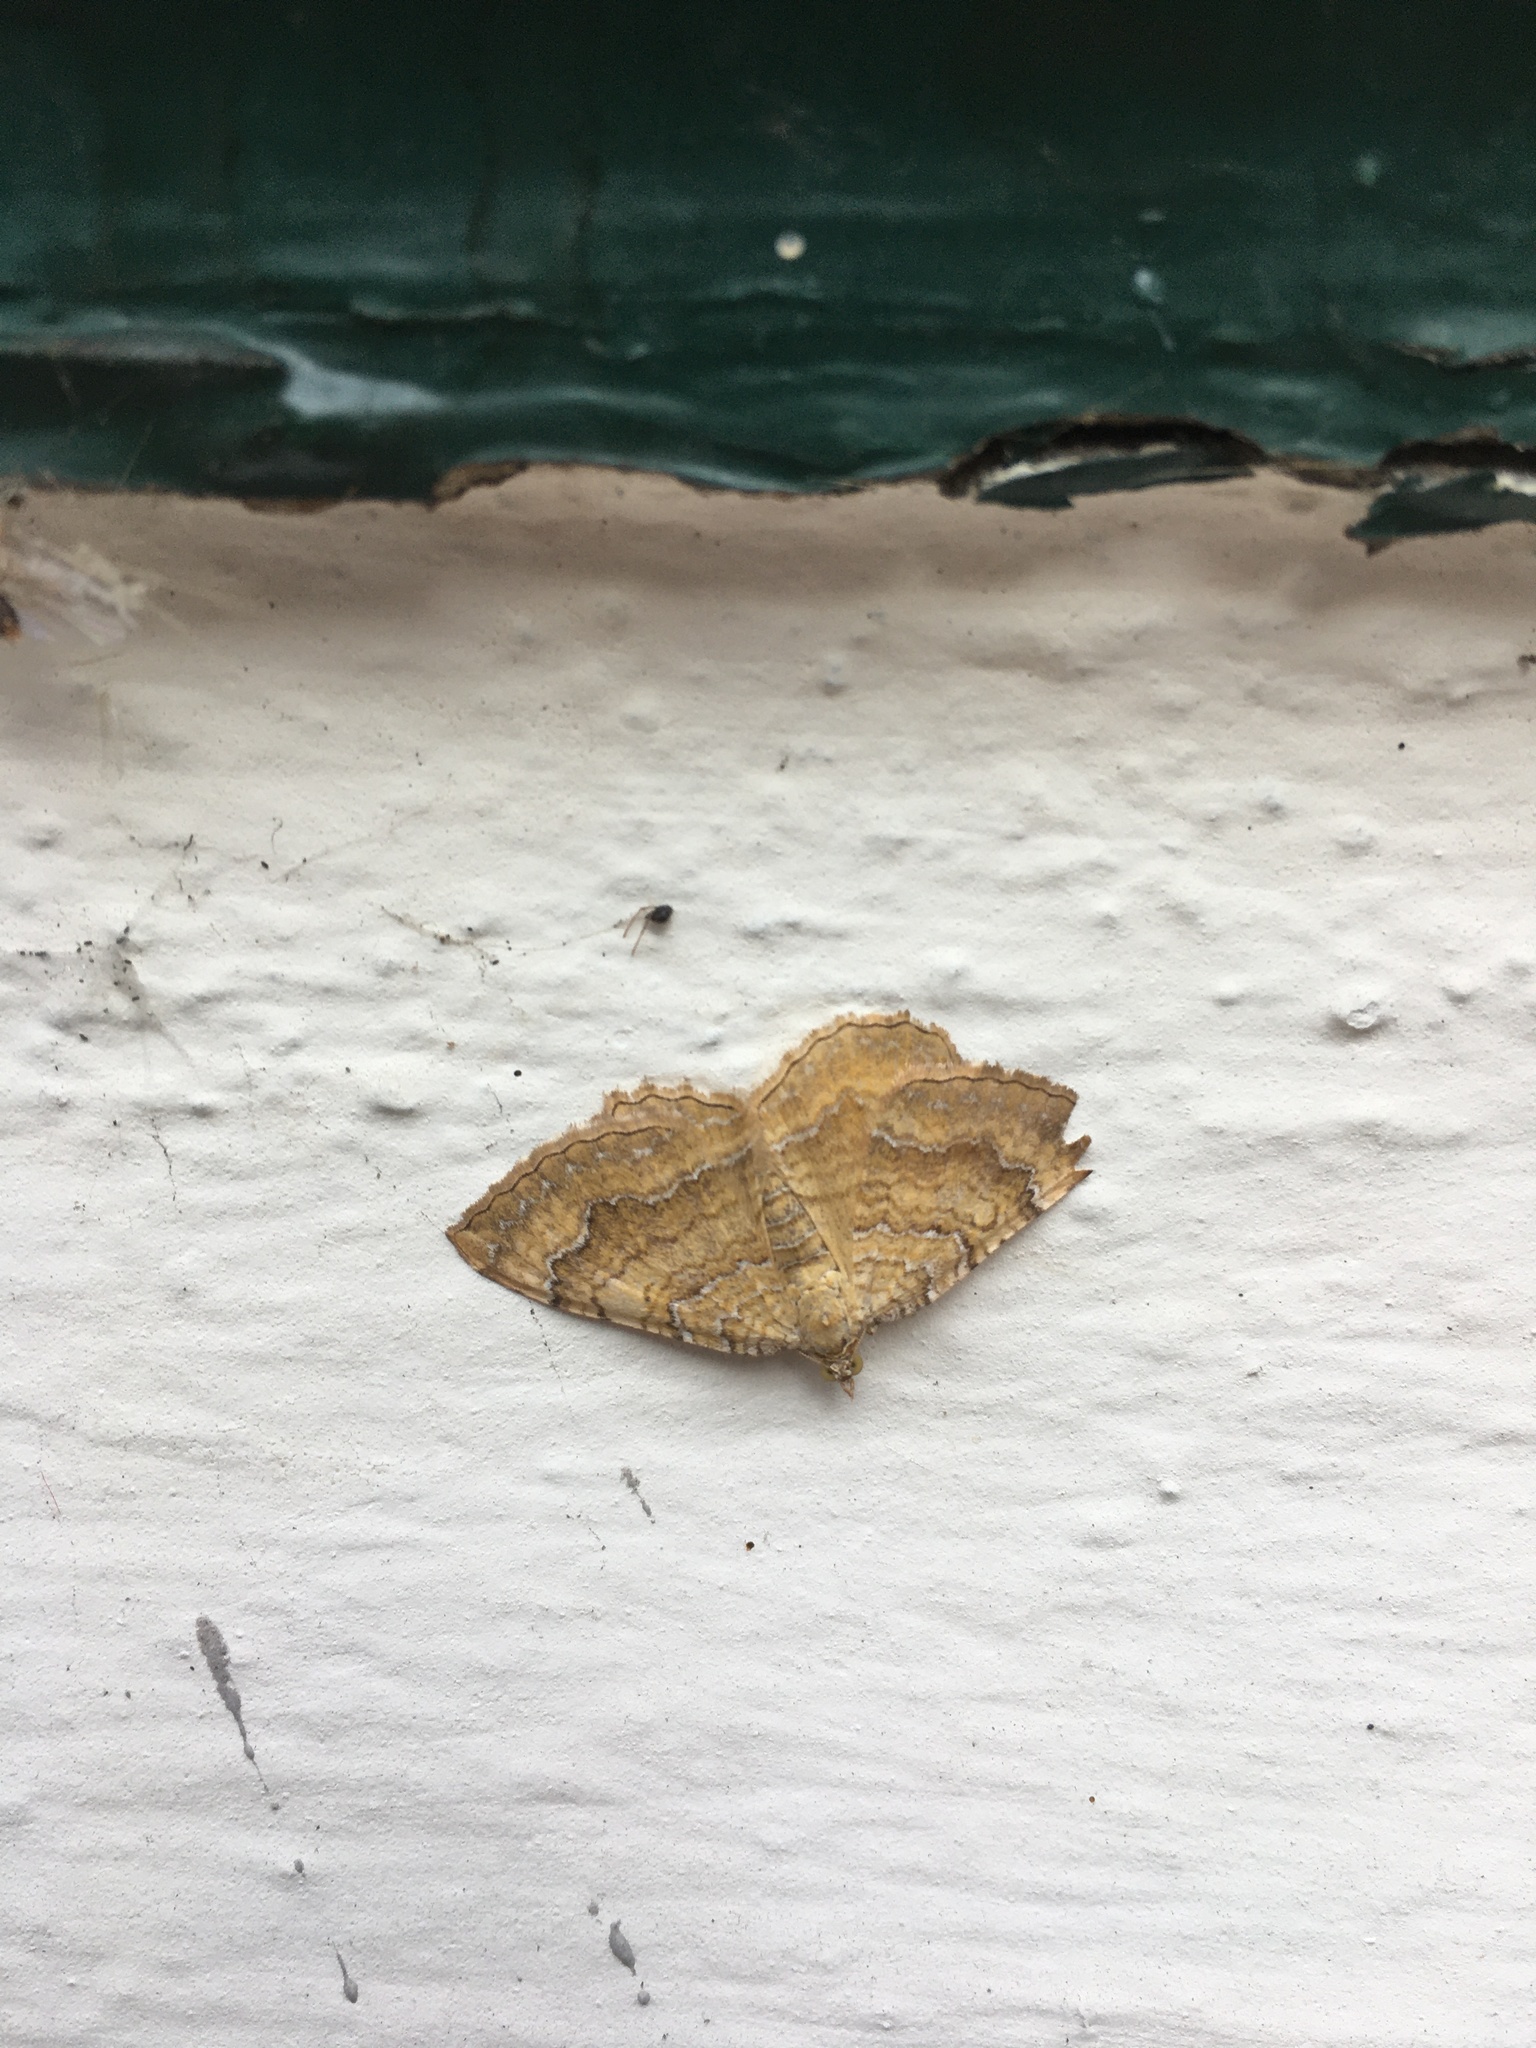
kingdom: Animalia
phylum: Arthropoda
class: Insecta
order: Lepidoptera
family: Geometridae
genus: Camptogramma
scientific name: Camptogramma bilineata
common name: Yellow shell
